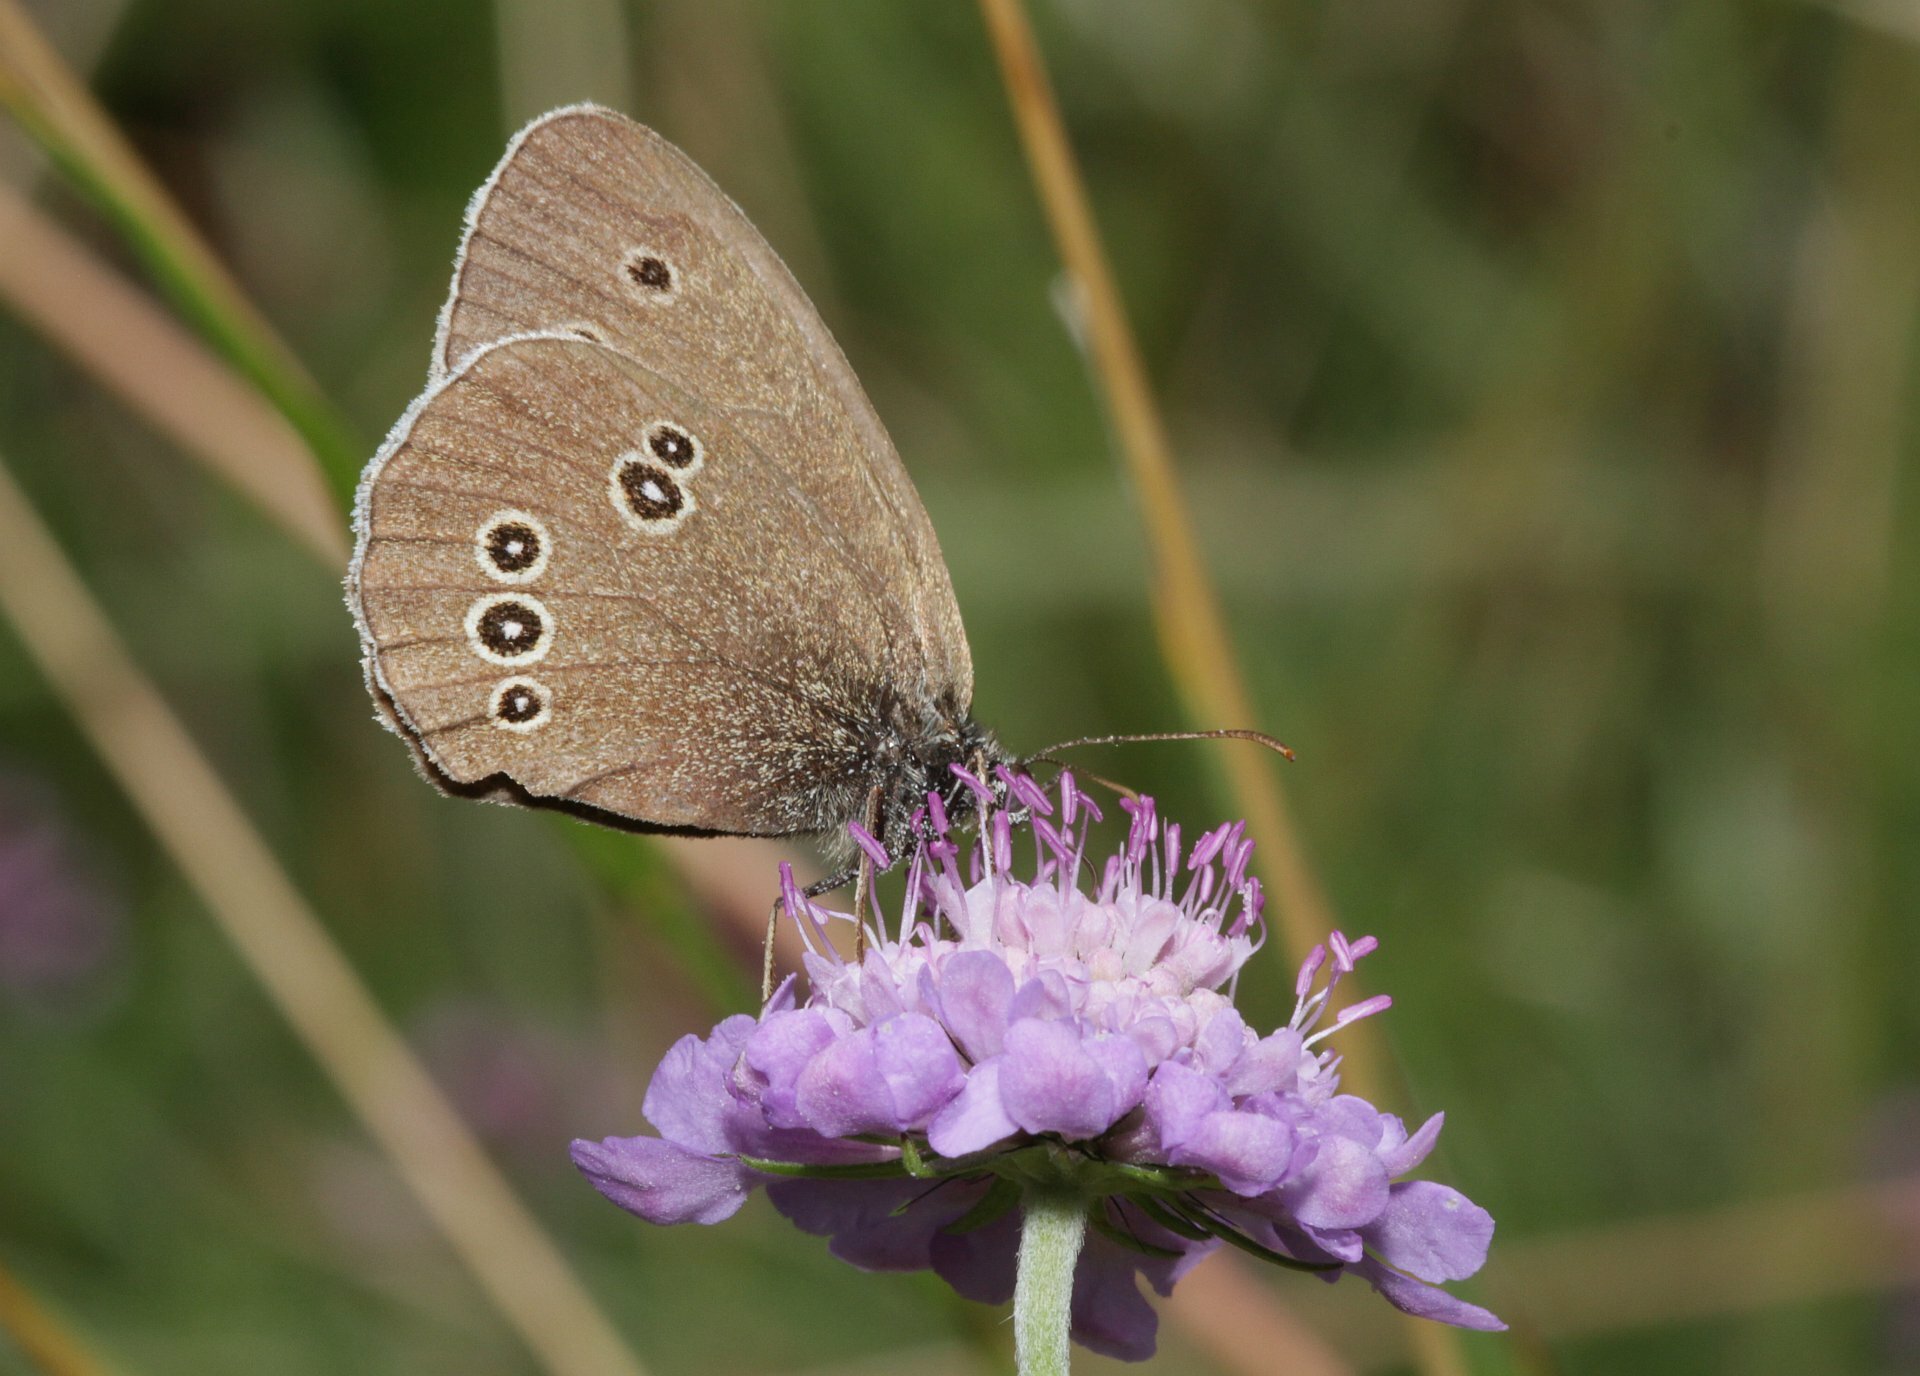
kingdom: Animalia
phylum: Arthropoda
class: Insecta
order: Lepidoptera
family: Nymphalidae
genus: Aphantopus
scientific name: Aphantopus hyperantus
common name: Ringlet
